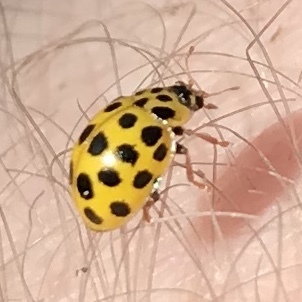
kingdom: Animalia
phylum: Arthropoda
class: Insecta
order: Coleoptera
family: Coccinellidae
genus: Psyllobora
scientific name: Psyllobora vigintiduopunctata
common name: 22-spot ladybird
